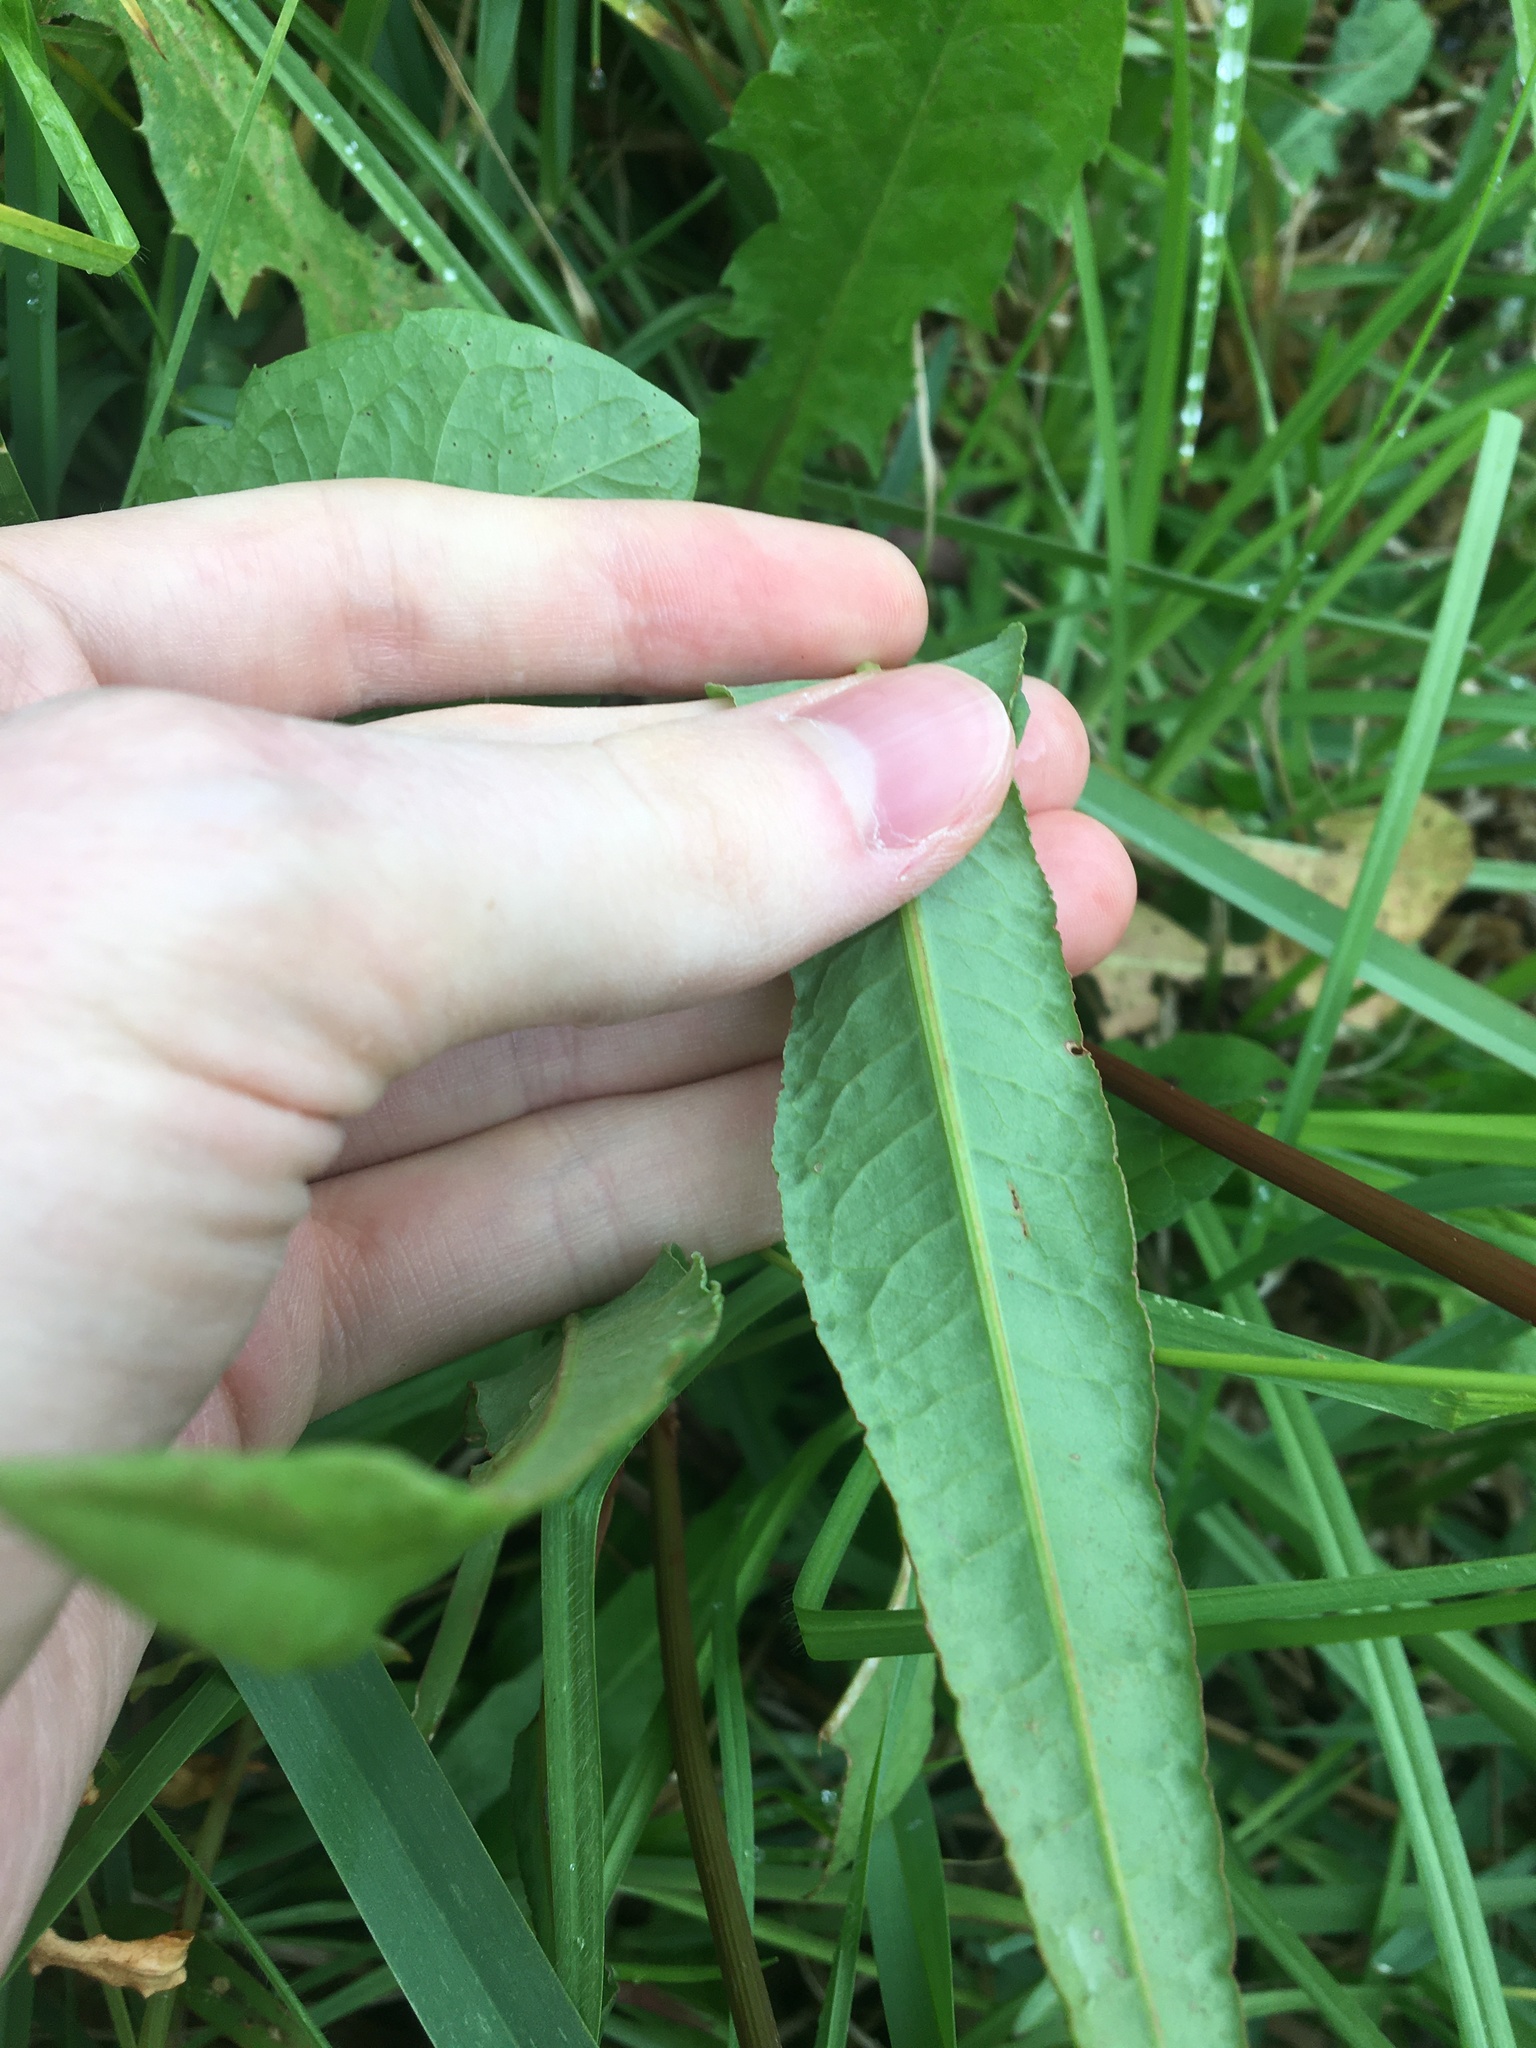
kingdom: Plantae
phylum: Tracheophyta
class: Magnoliopsida
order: Caryophyllales
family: Polygonaceae
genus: Rumex
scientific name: Rumex brownii
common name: Hooked dock
